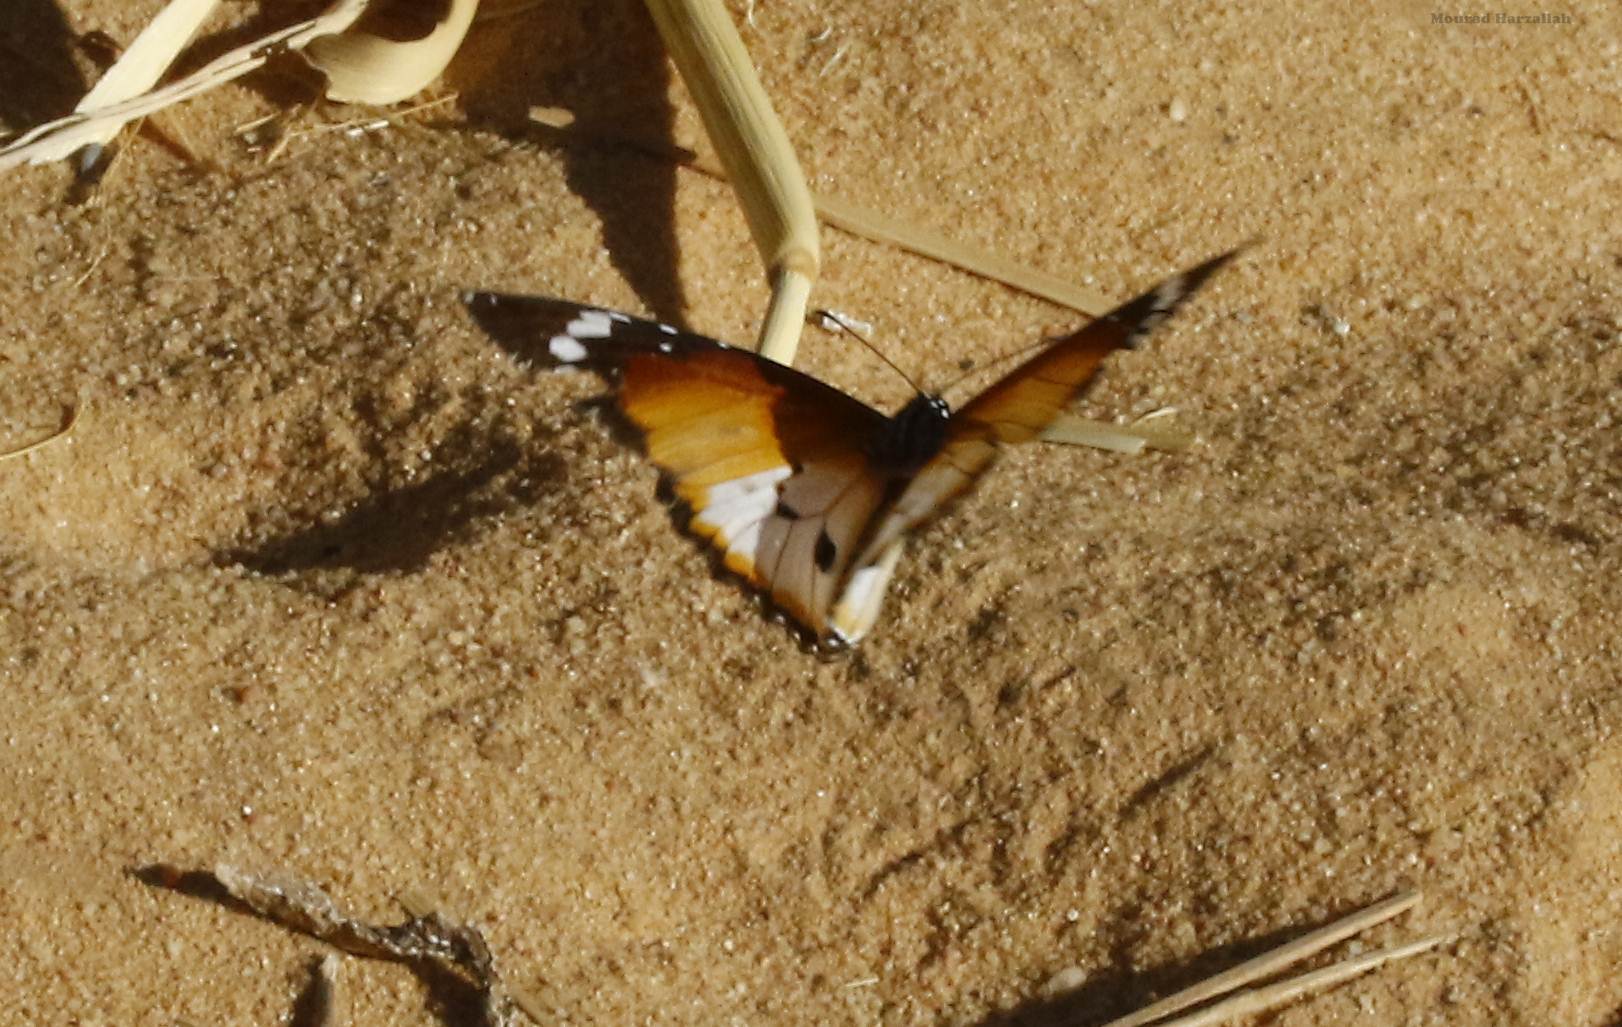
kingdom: Animalia
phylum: Arthropoda
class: Insecta
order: Lepidoptera
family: Nymphalidae
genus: Danaus
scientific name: Danaus chrysippus
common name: Plain tiger
